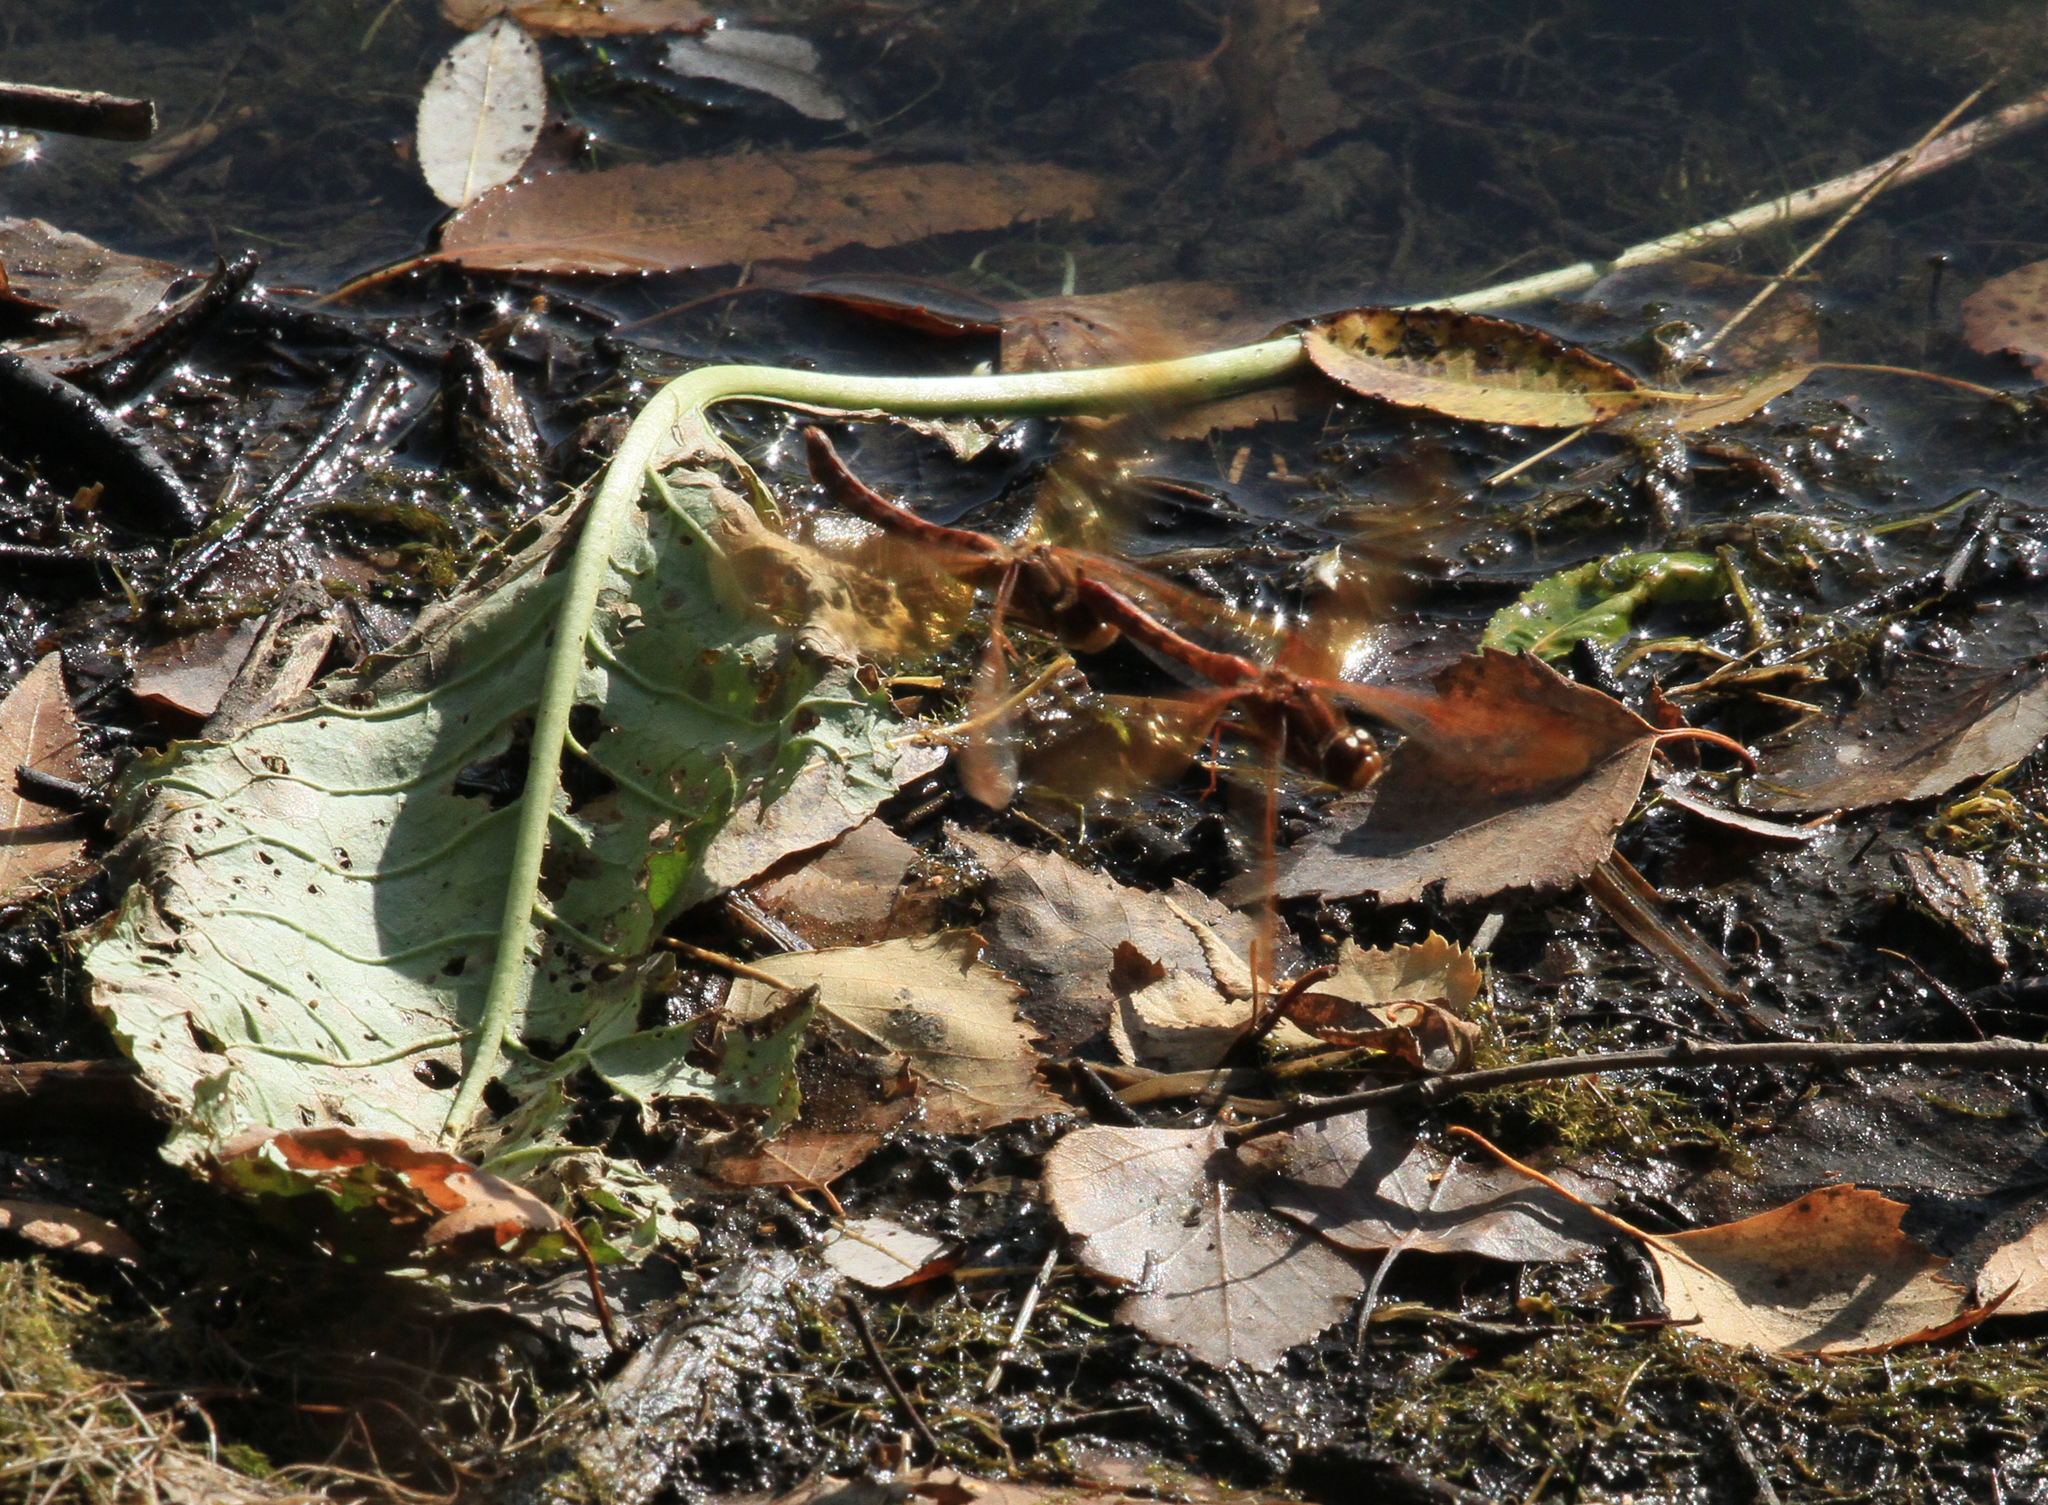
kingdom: Animalia
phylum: Arthropoda
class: Insecta
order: Odonata
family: Libellulidae
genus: Sympetrum
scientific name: Sympetrum croceolum
